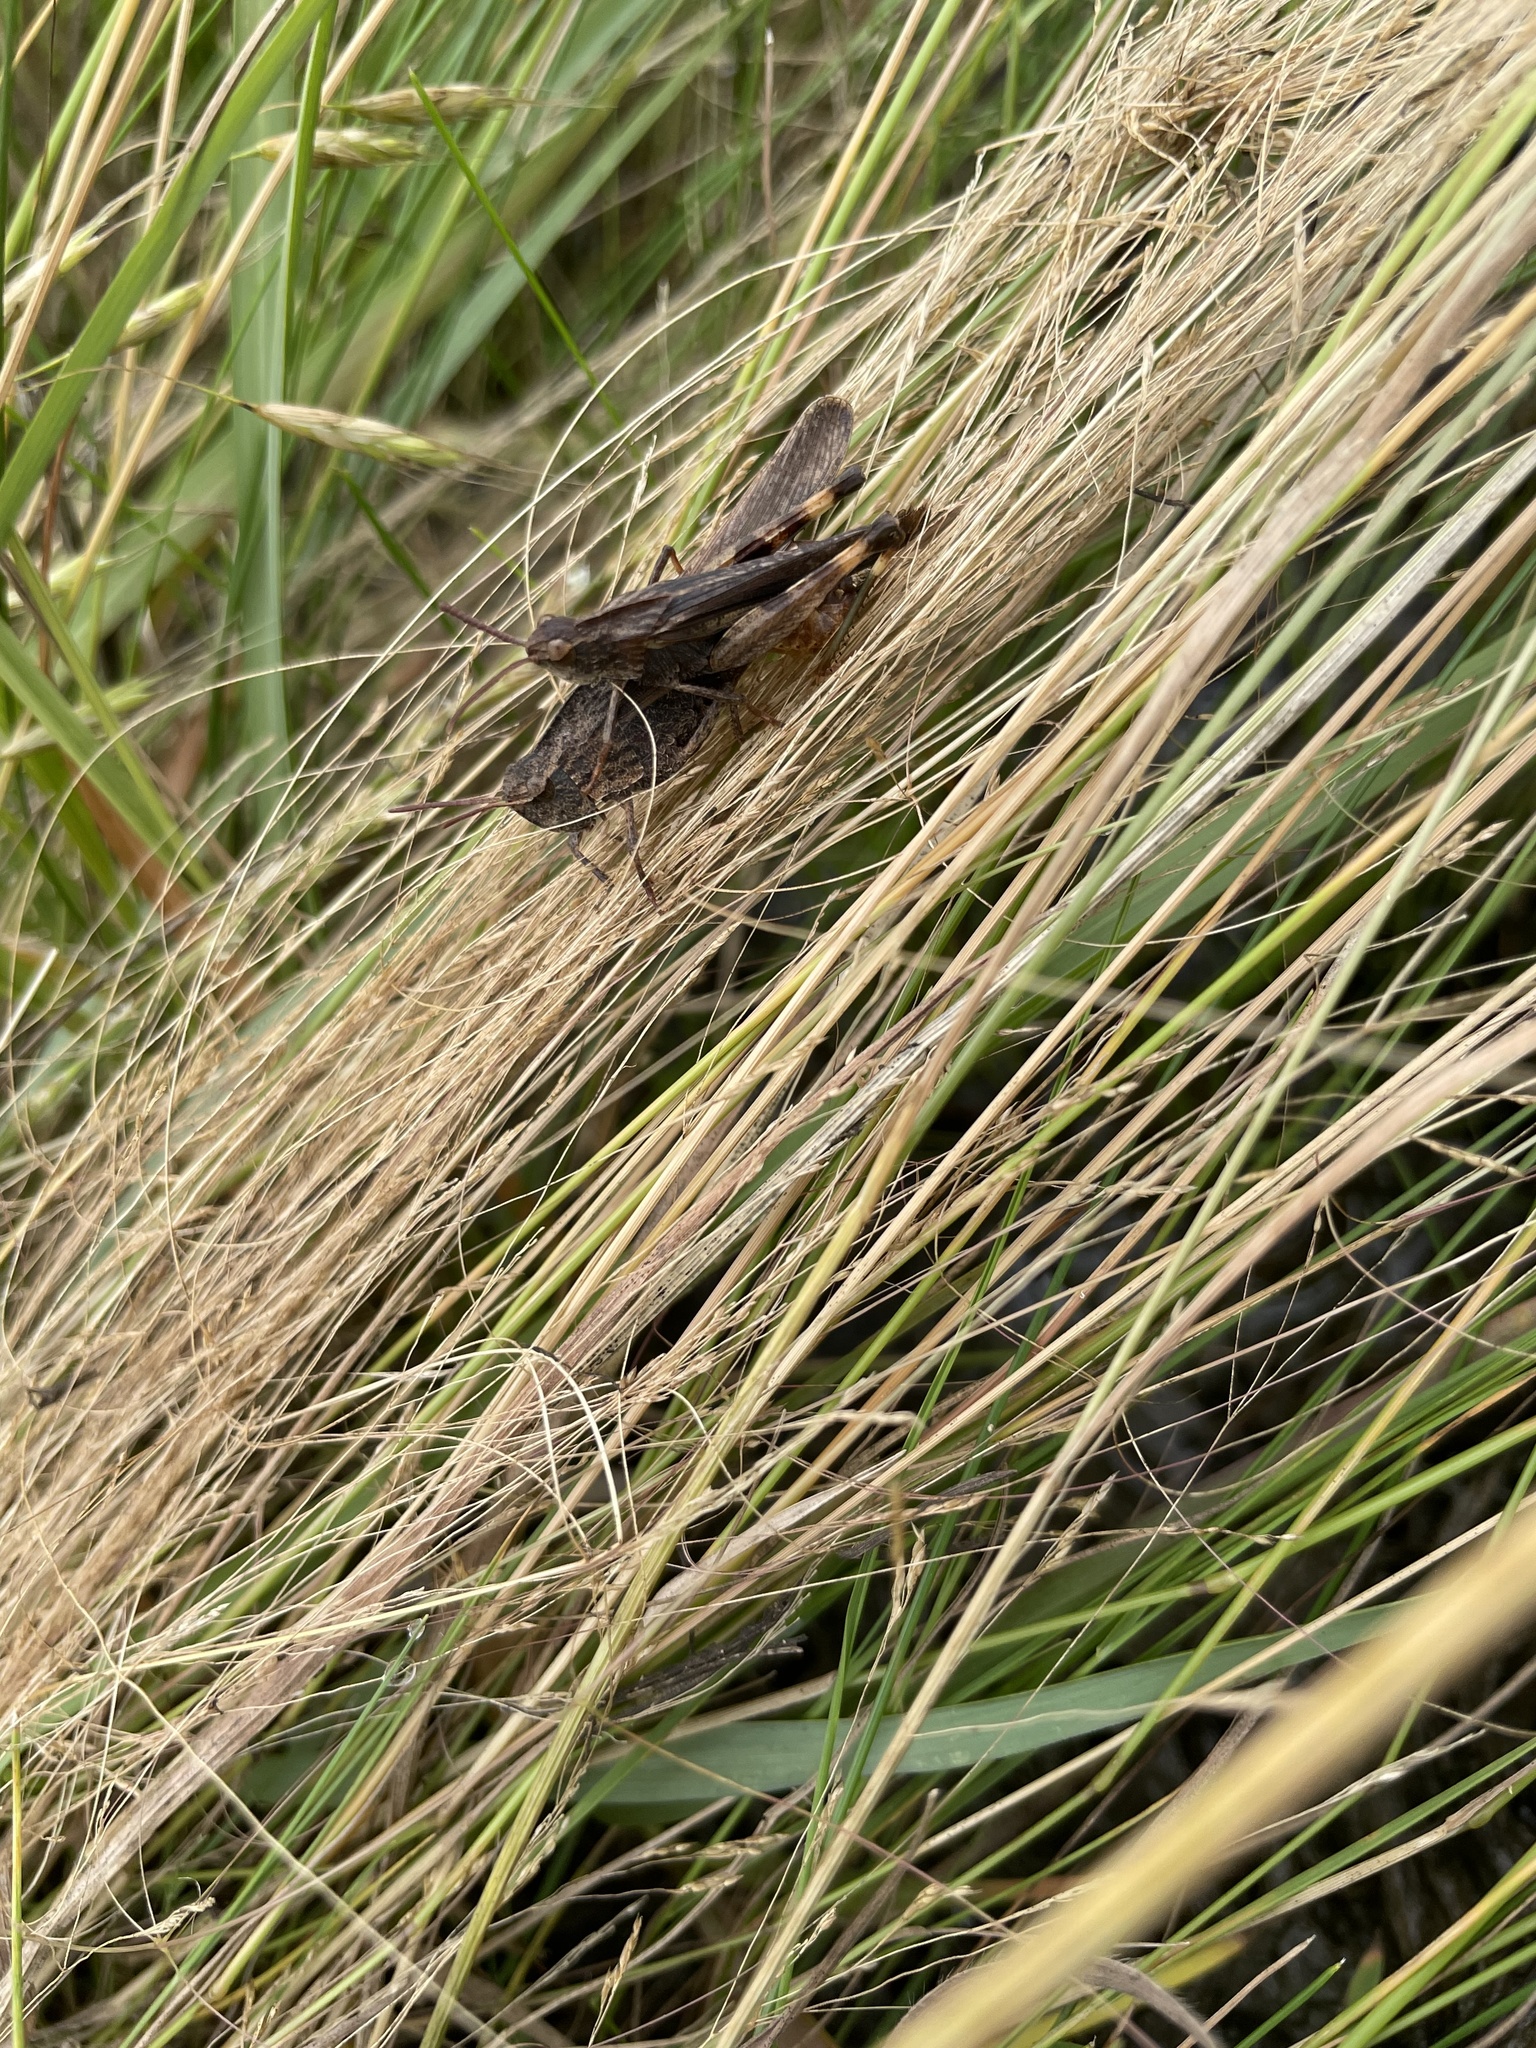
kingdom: Animalia
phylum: Arthropoda
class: Insecta
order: Orthoptera
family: Acrididae
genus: Chortophaga
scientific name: Chortophaga viridifasciata
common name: Green-striped grasshopper
